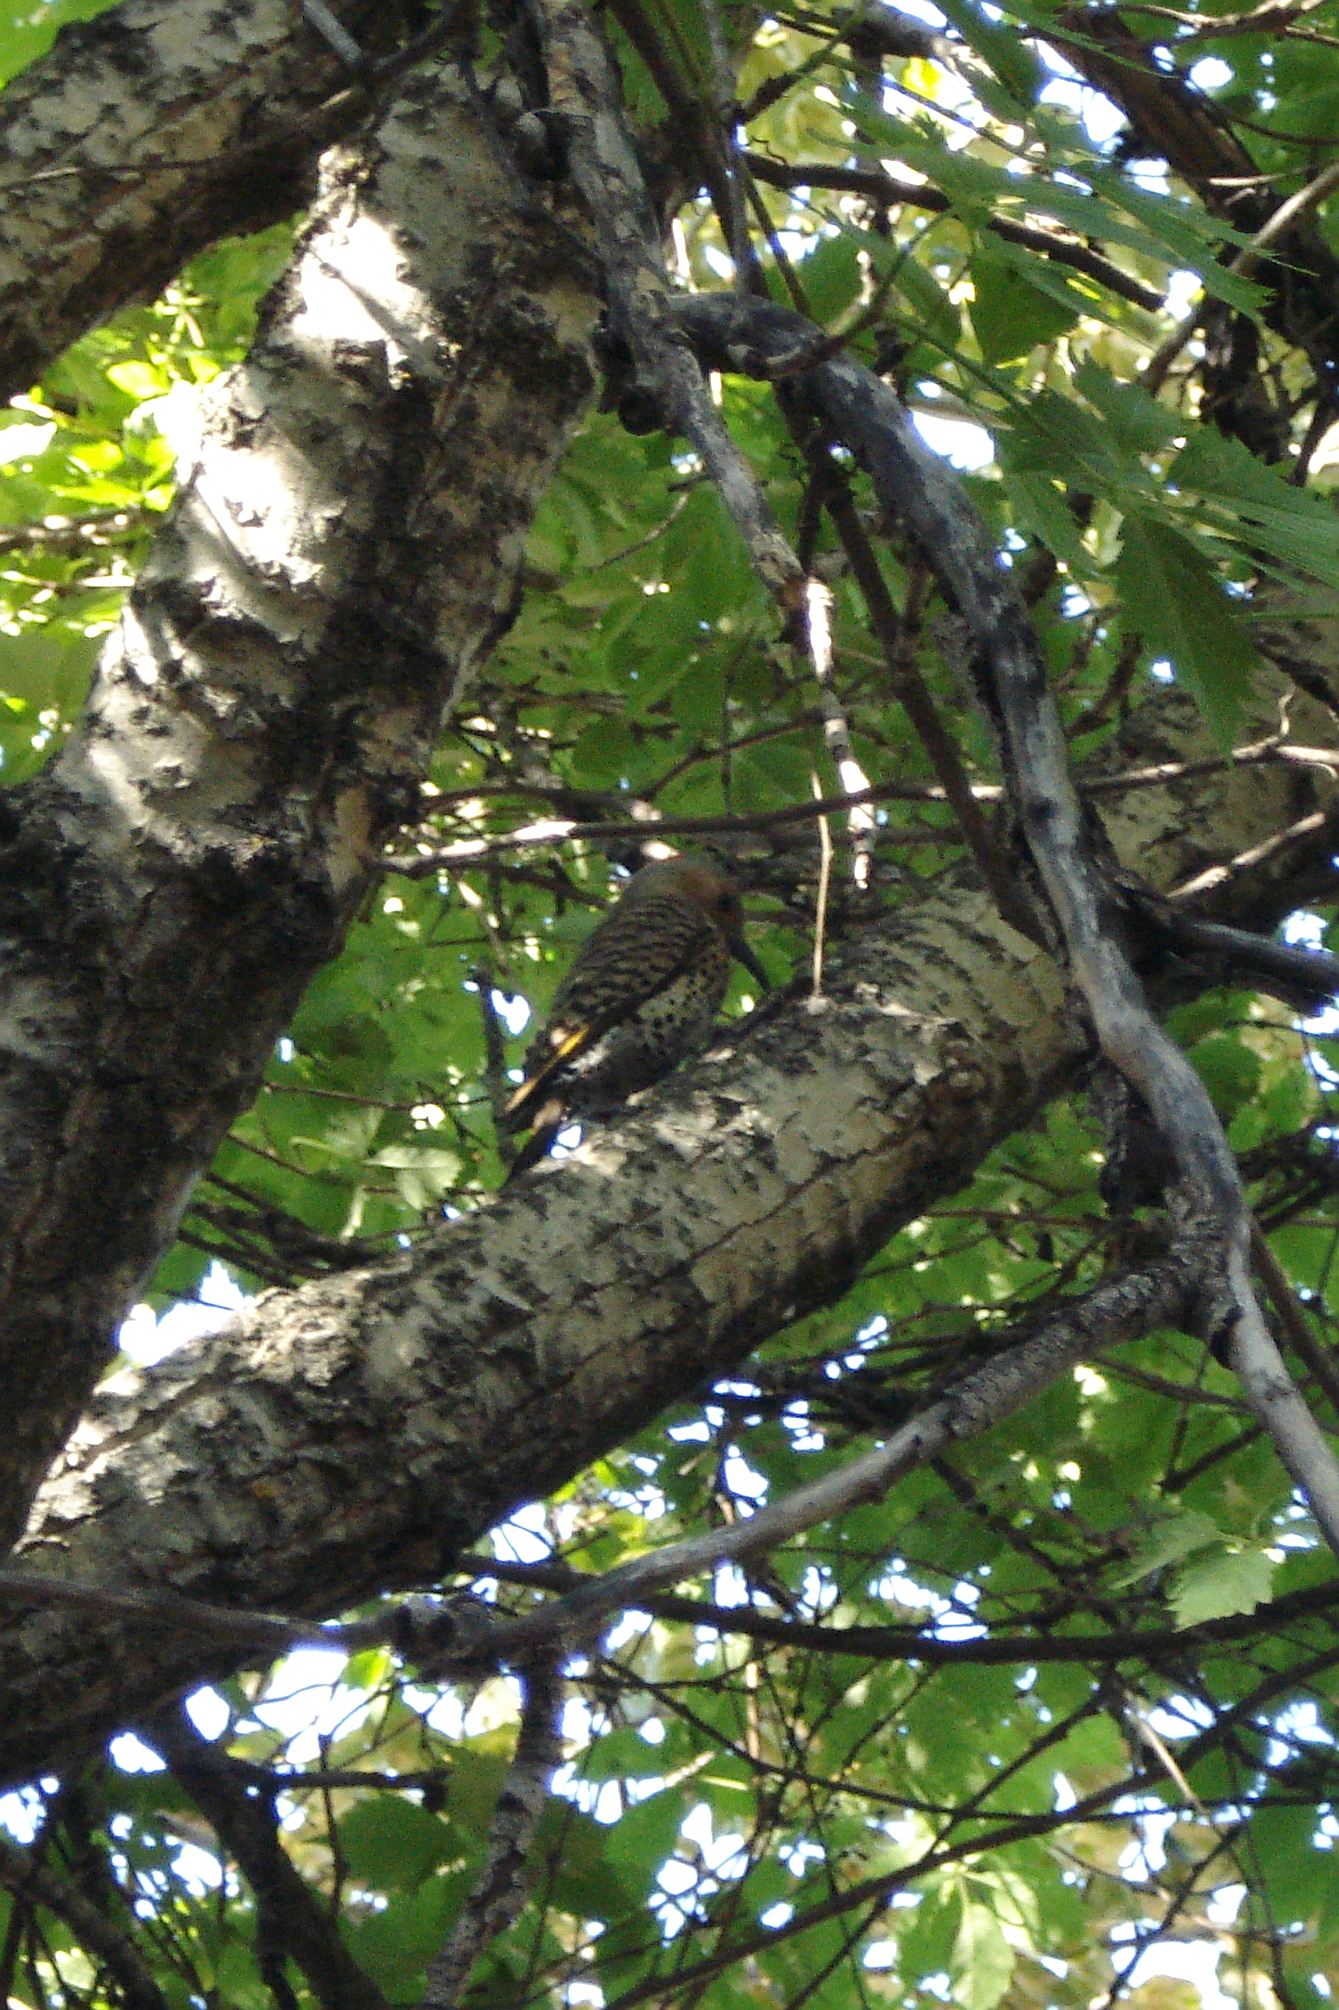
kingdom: Animalia
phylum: Chordata
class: Aves
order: Piciformes
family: Picidae
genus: Colaptes
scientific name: Colaptes auratus
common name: Northern flicker
